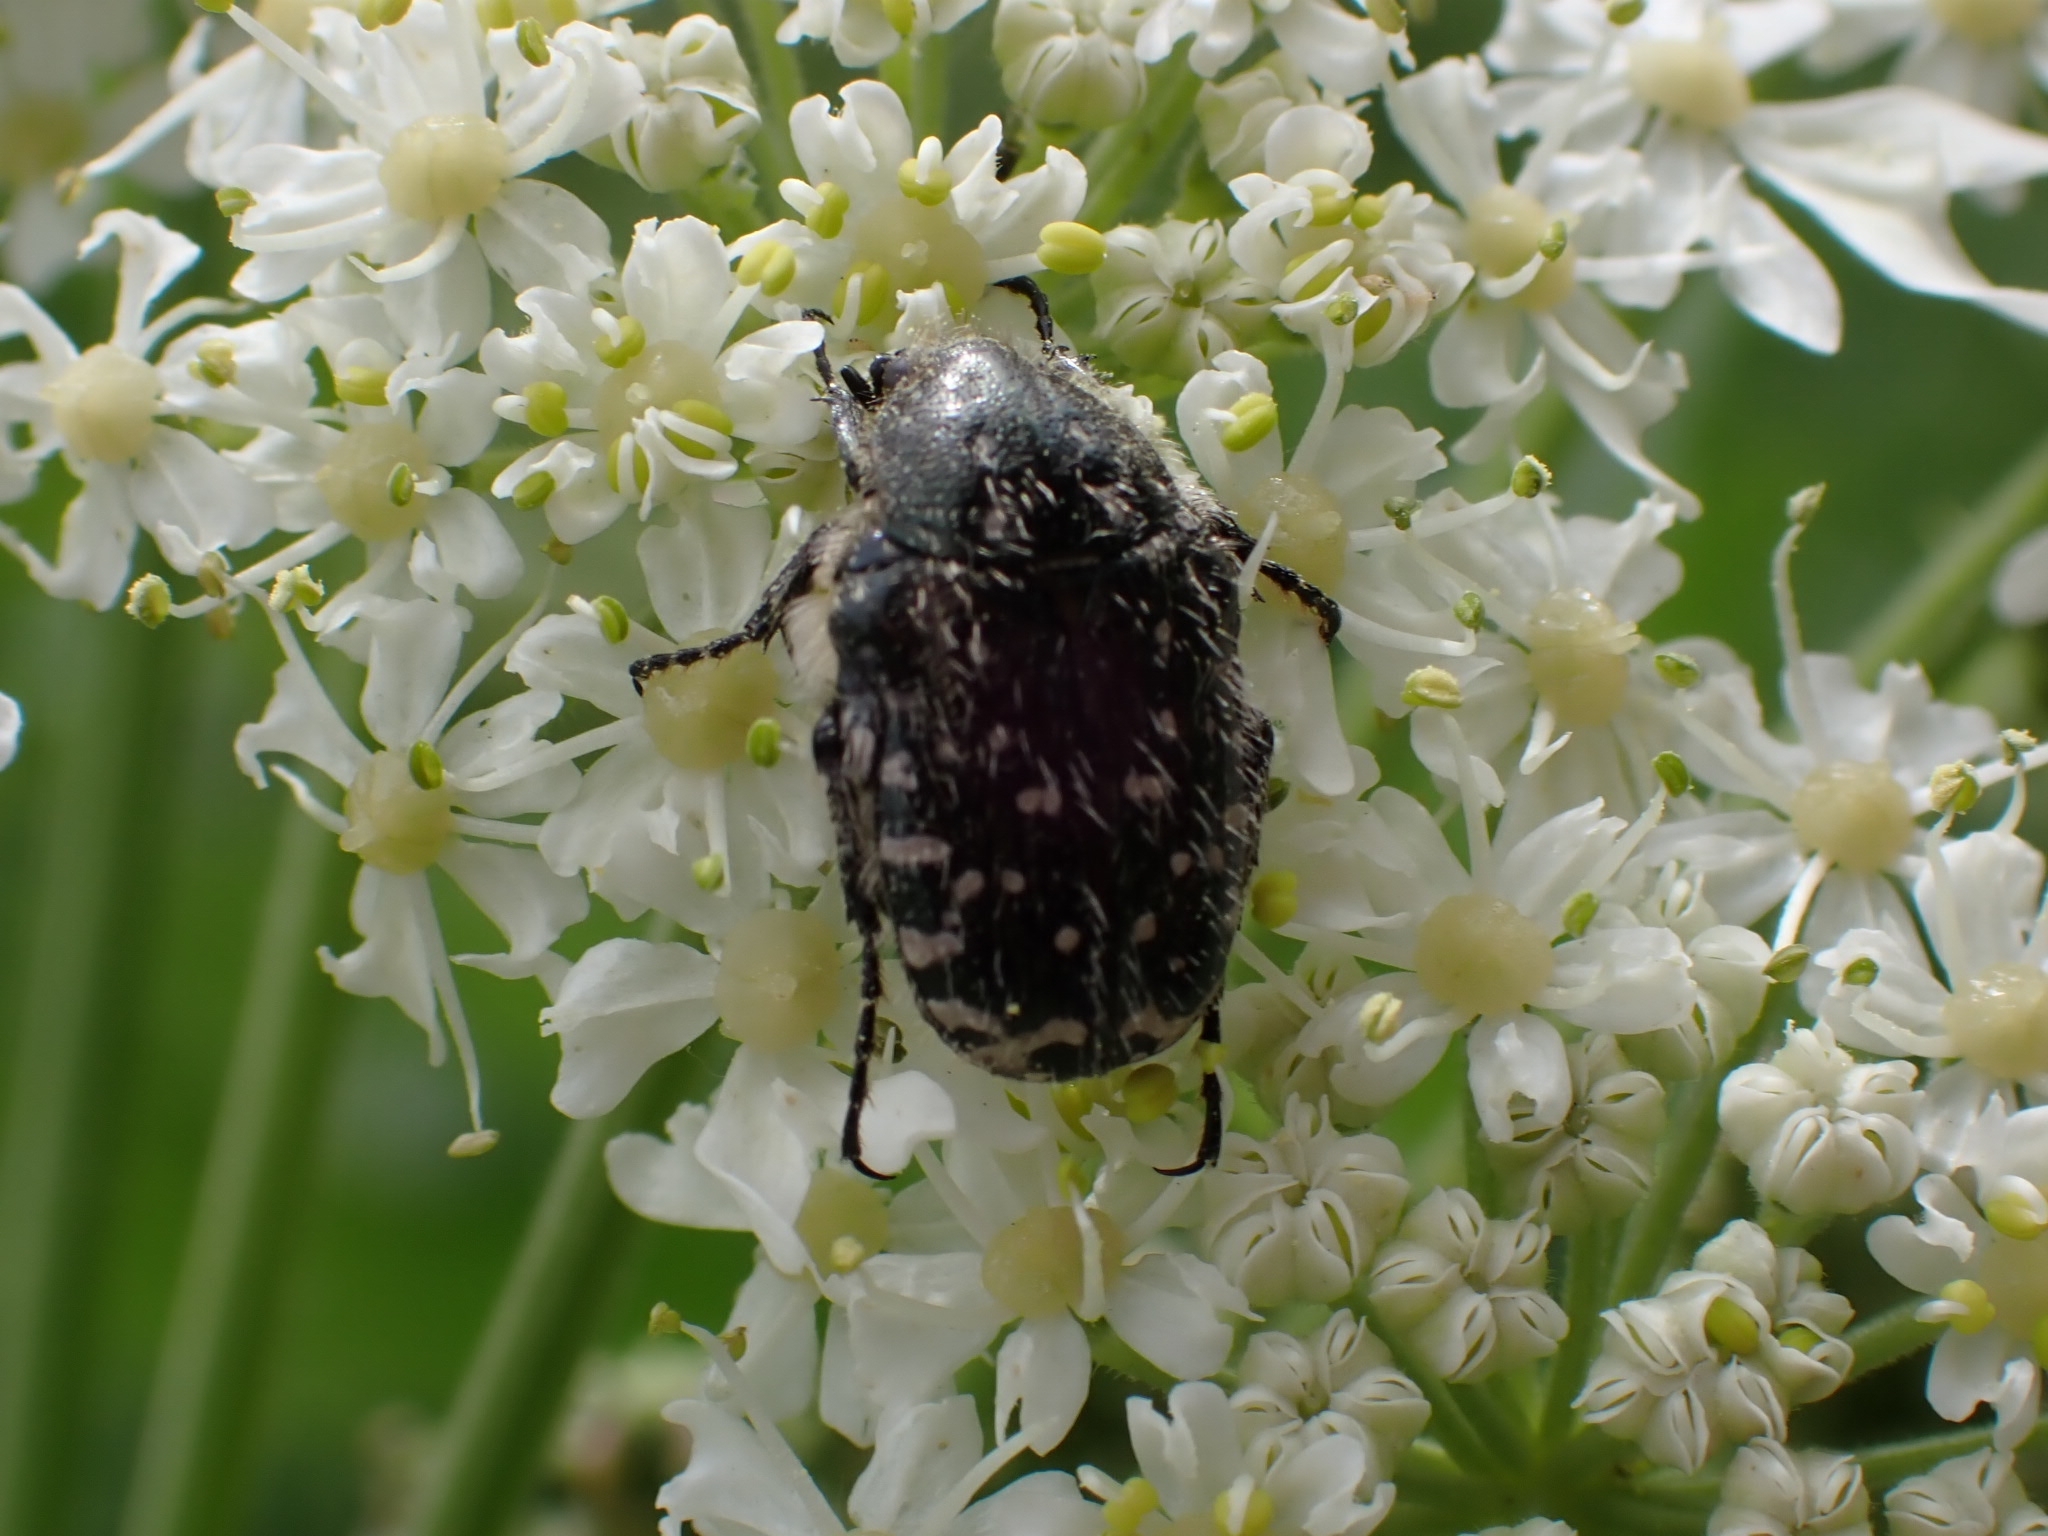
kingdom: Animalia
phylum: Arthropoda
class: Insecta
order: Coleoptera
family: Scarabaeidae
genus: Oxythyrea
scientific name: Oxythyrea funesta
